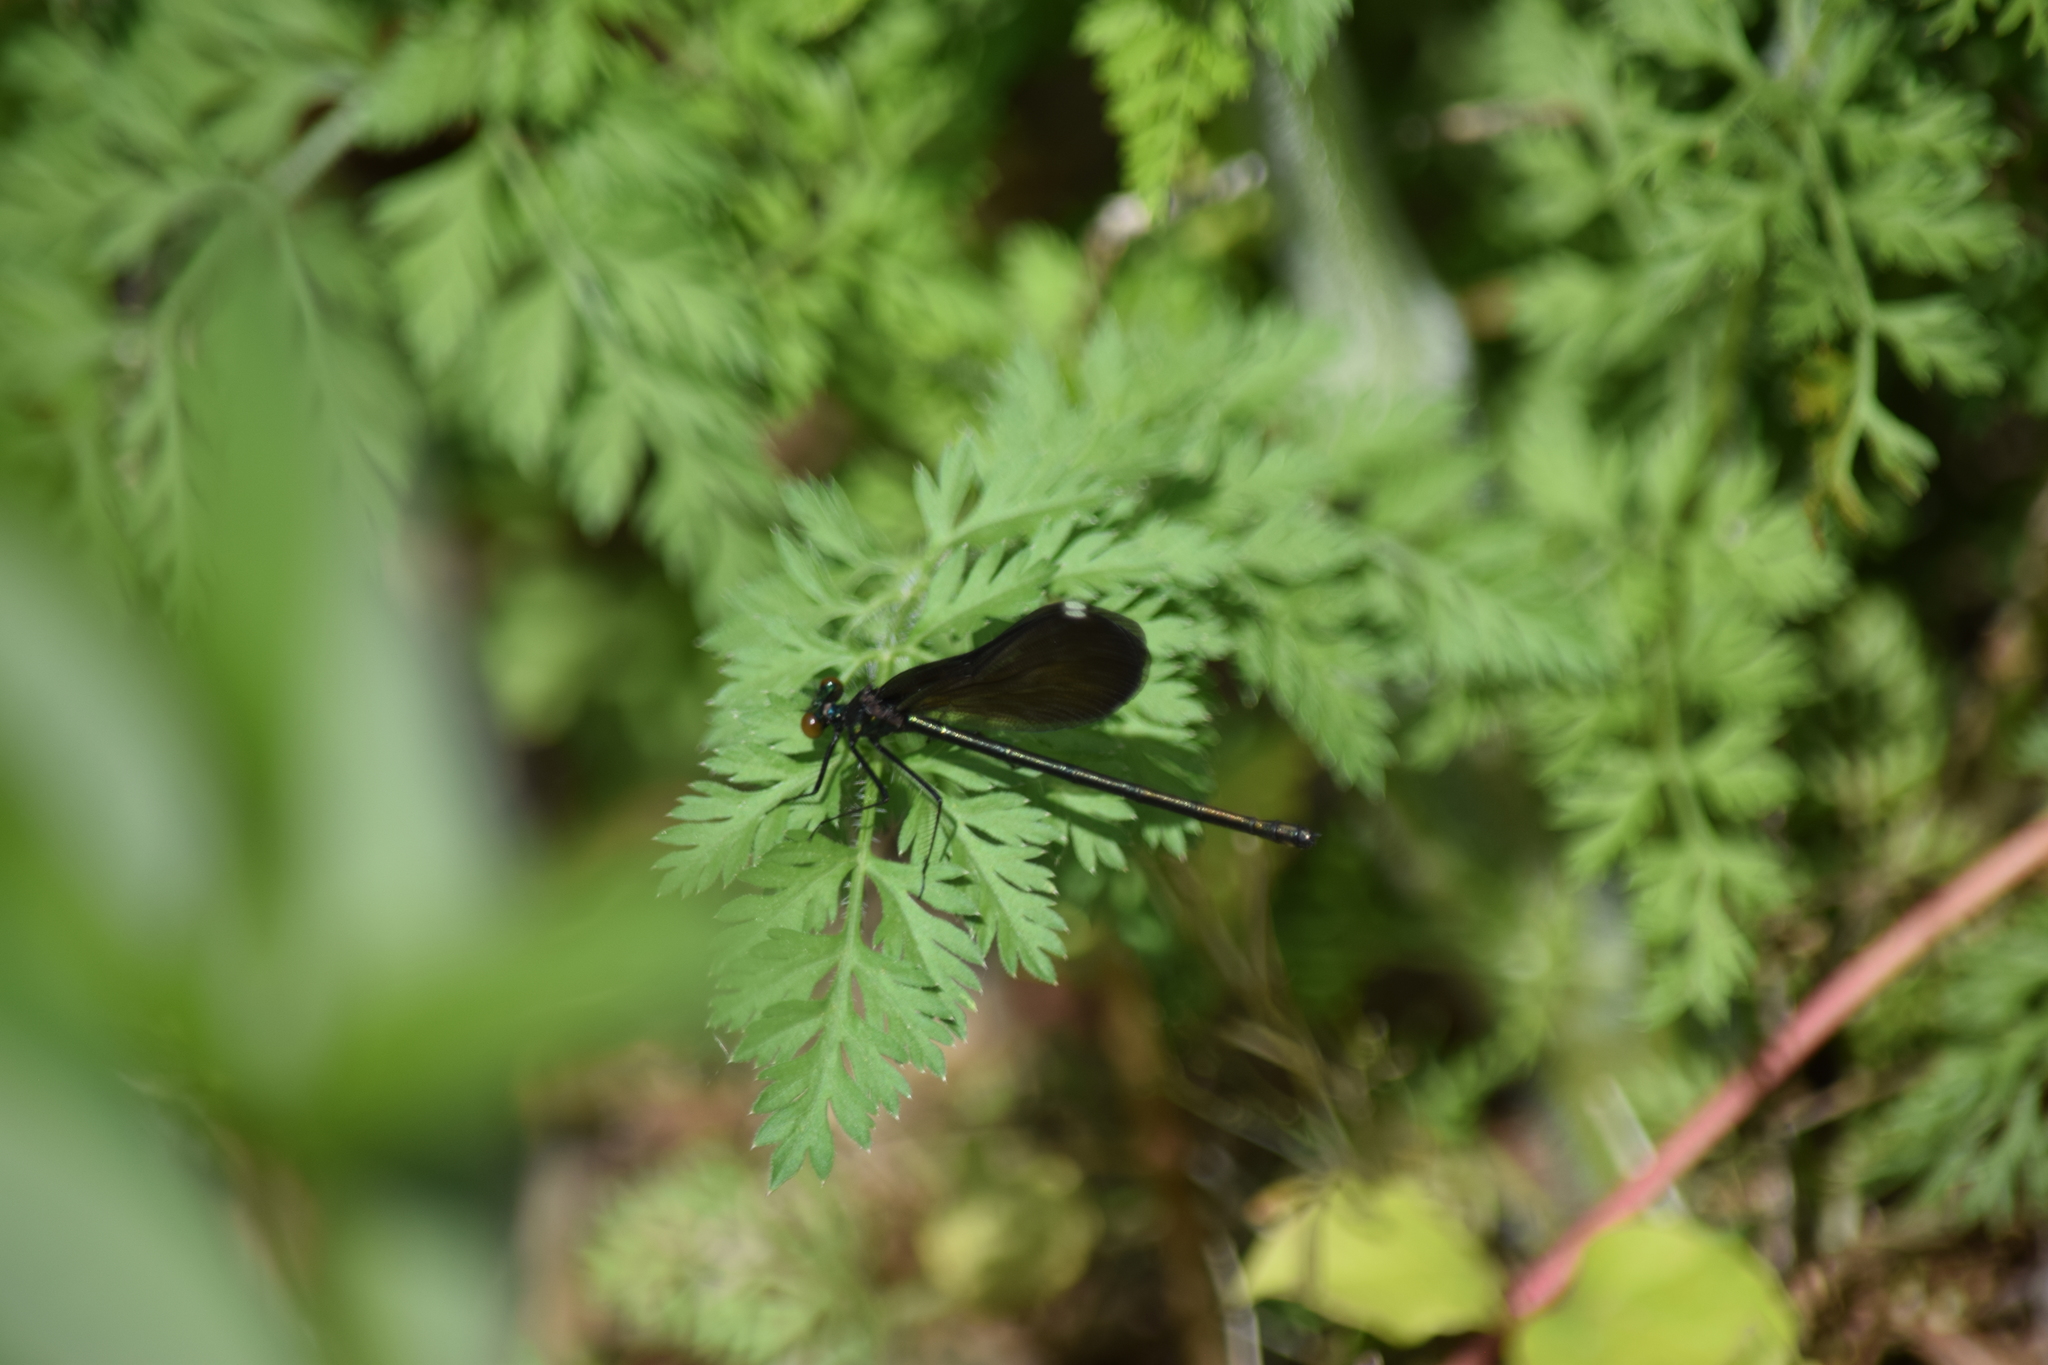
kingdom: Animalia
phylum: Arthropoda
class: Insecta
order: Odonata
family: Calopterygidae
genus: Calopteryx
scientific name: Calopteryx maculata
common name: Ebony jewelwing
